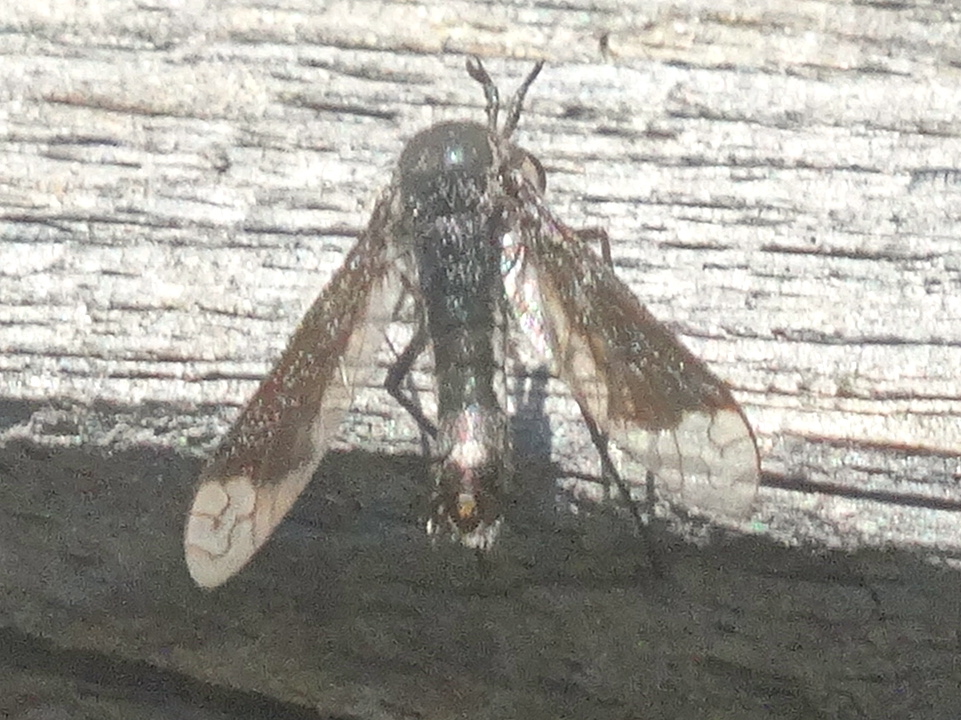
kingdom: Animalia
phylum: Arthropoda
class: Insecta
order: Diptera
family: Bombyliidae
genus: Lepidophora
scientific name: Lepidophora vetusta
